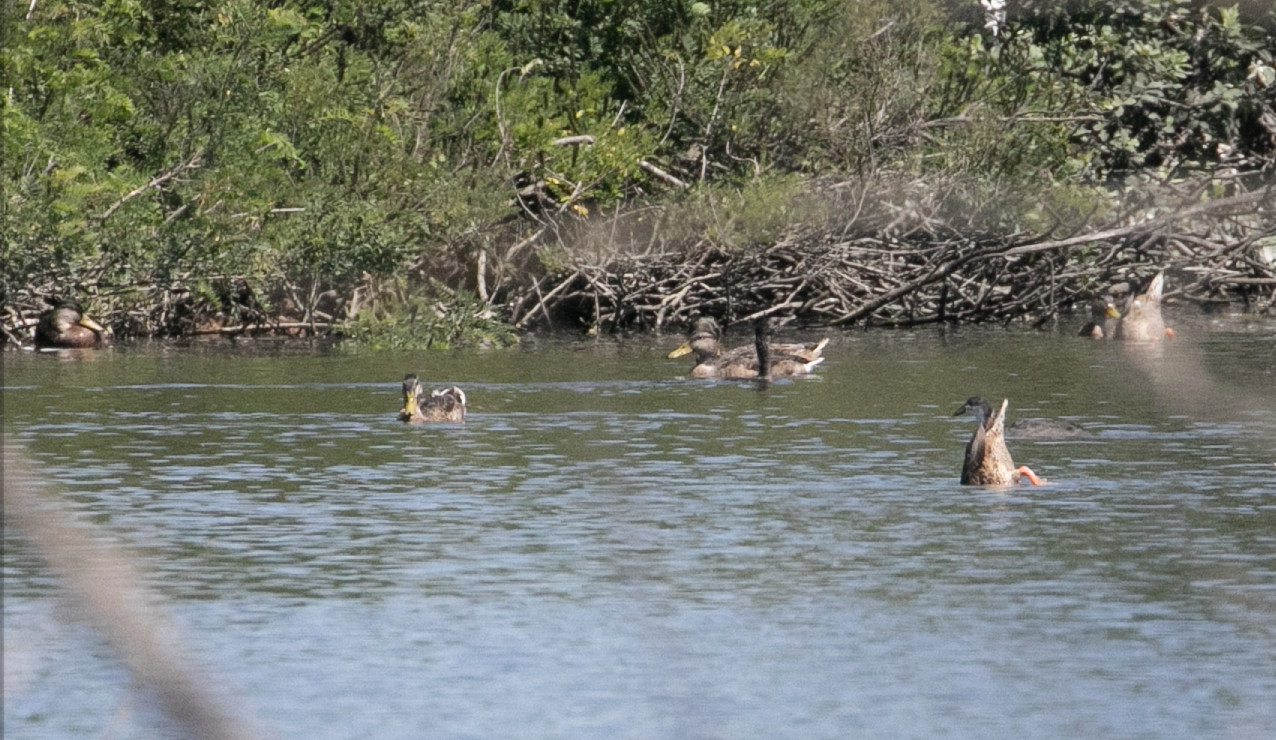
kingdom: Animalia
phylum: Chordata
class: Aves
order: Anseriformes
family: Anatidae
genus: Anas
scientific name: Anas platyrhynchos
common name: Mallard
